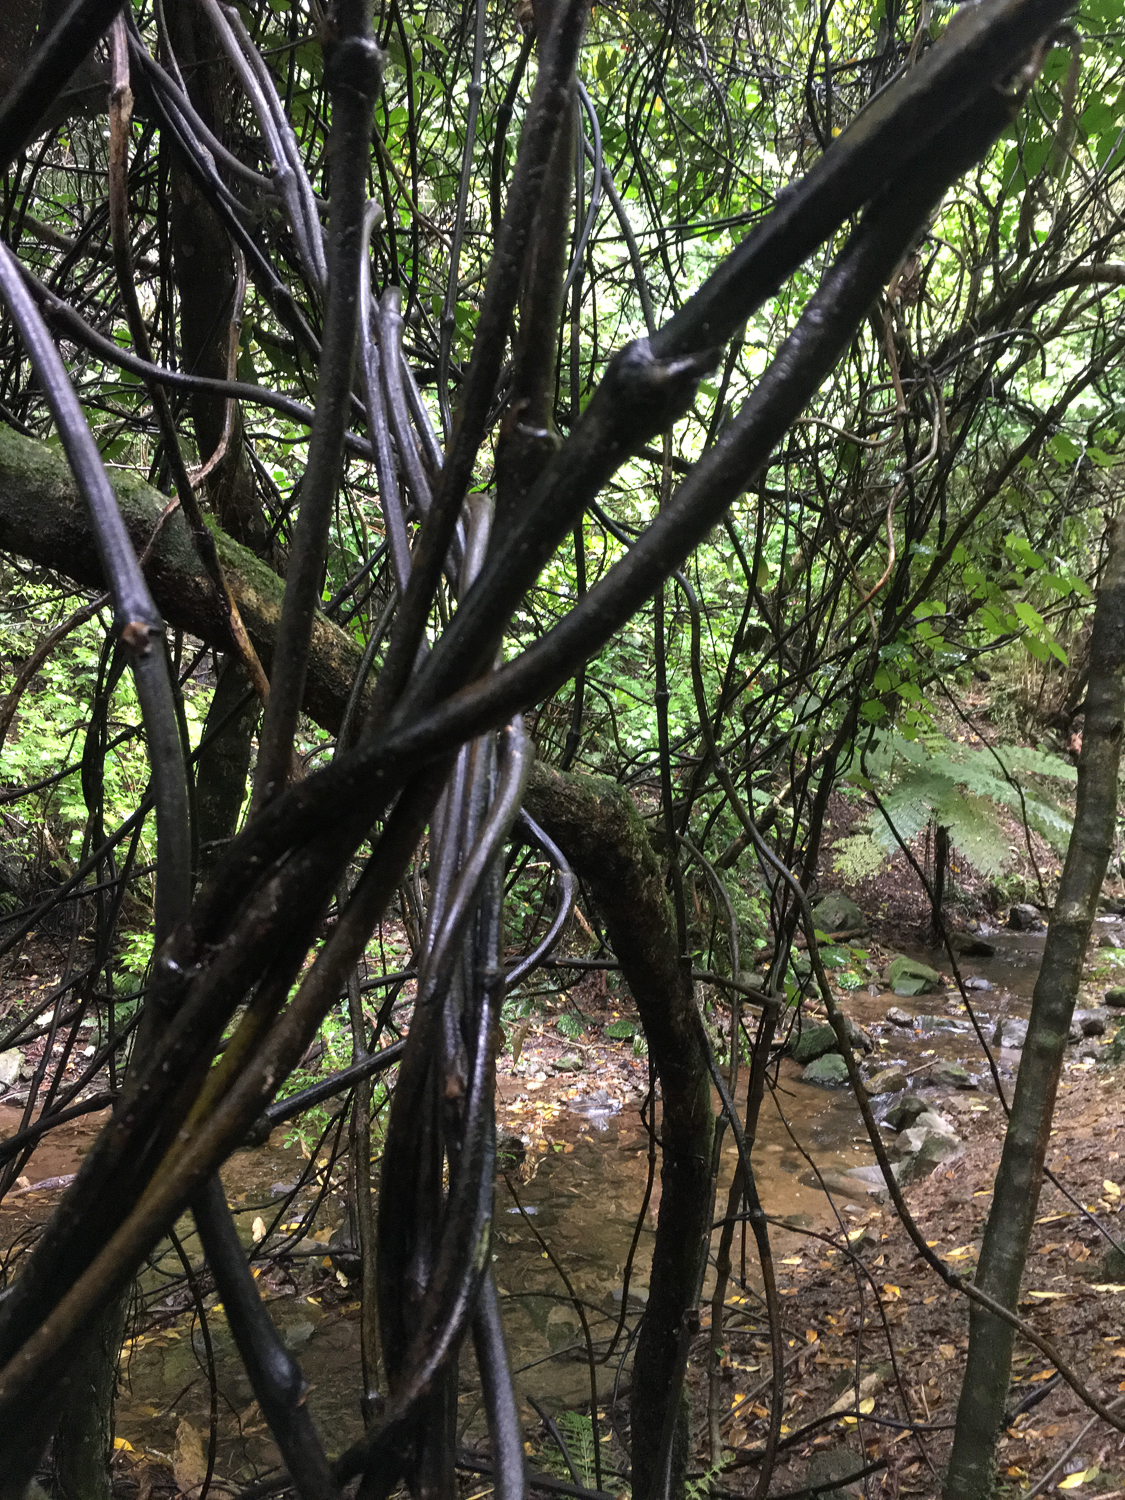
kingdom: Plantae
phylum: Tracheophyta
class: Liliopsida
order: Liliales
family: Ripogonaceae
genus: Ripogonum
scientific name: Ripogonum scandens
